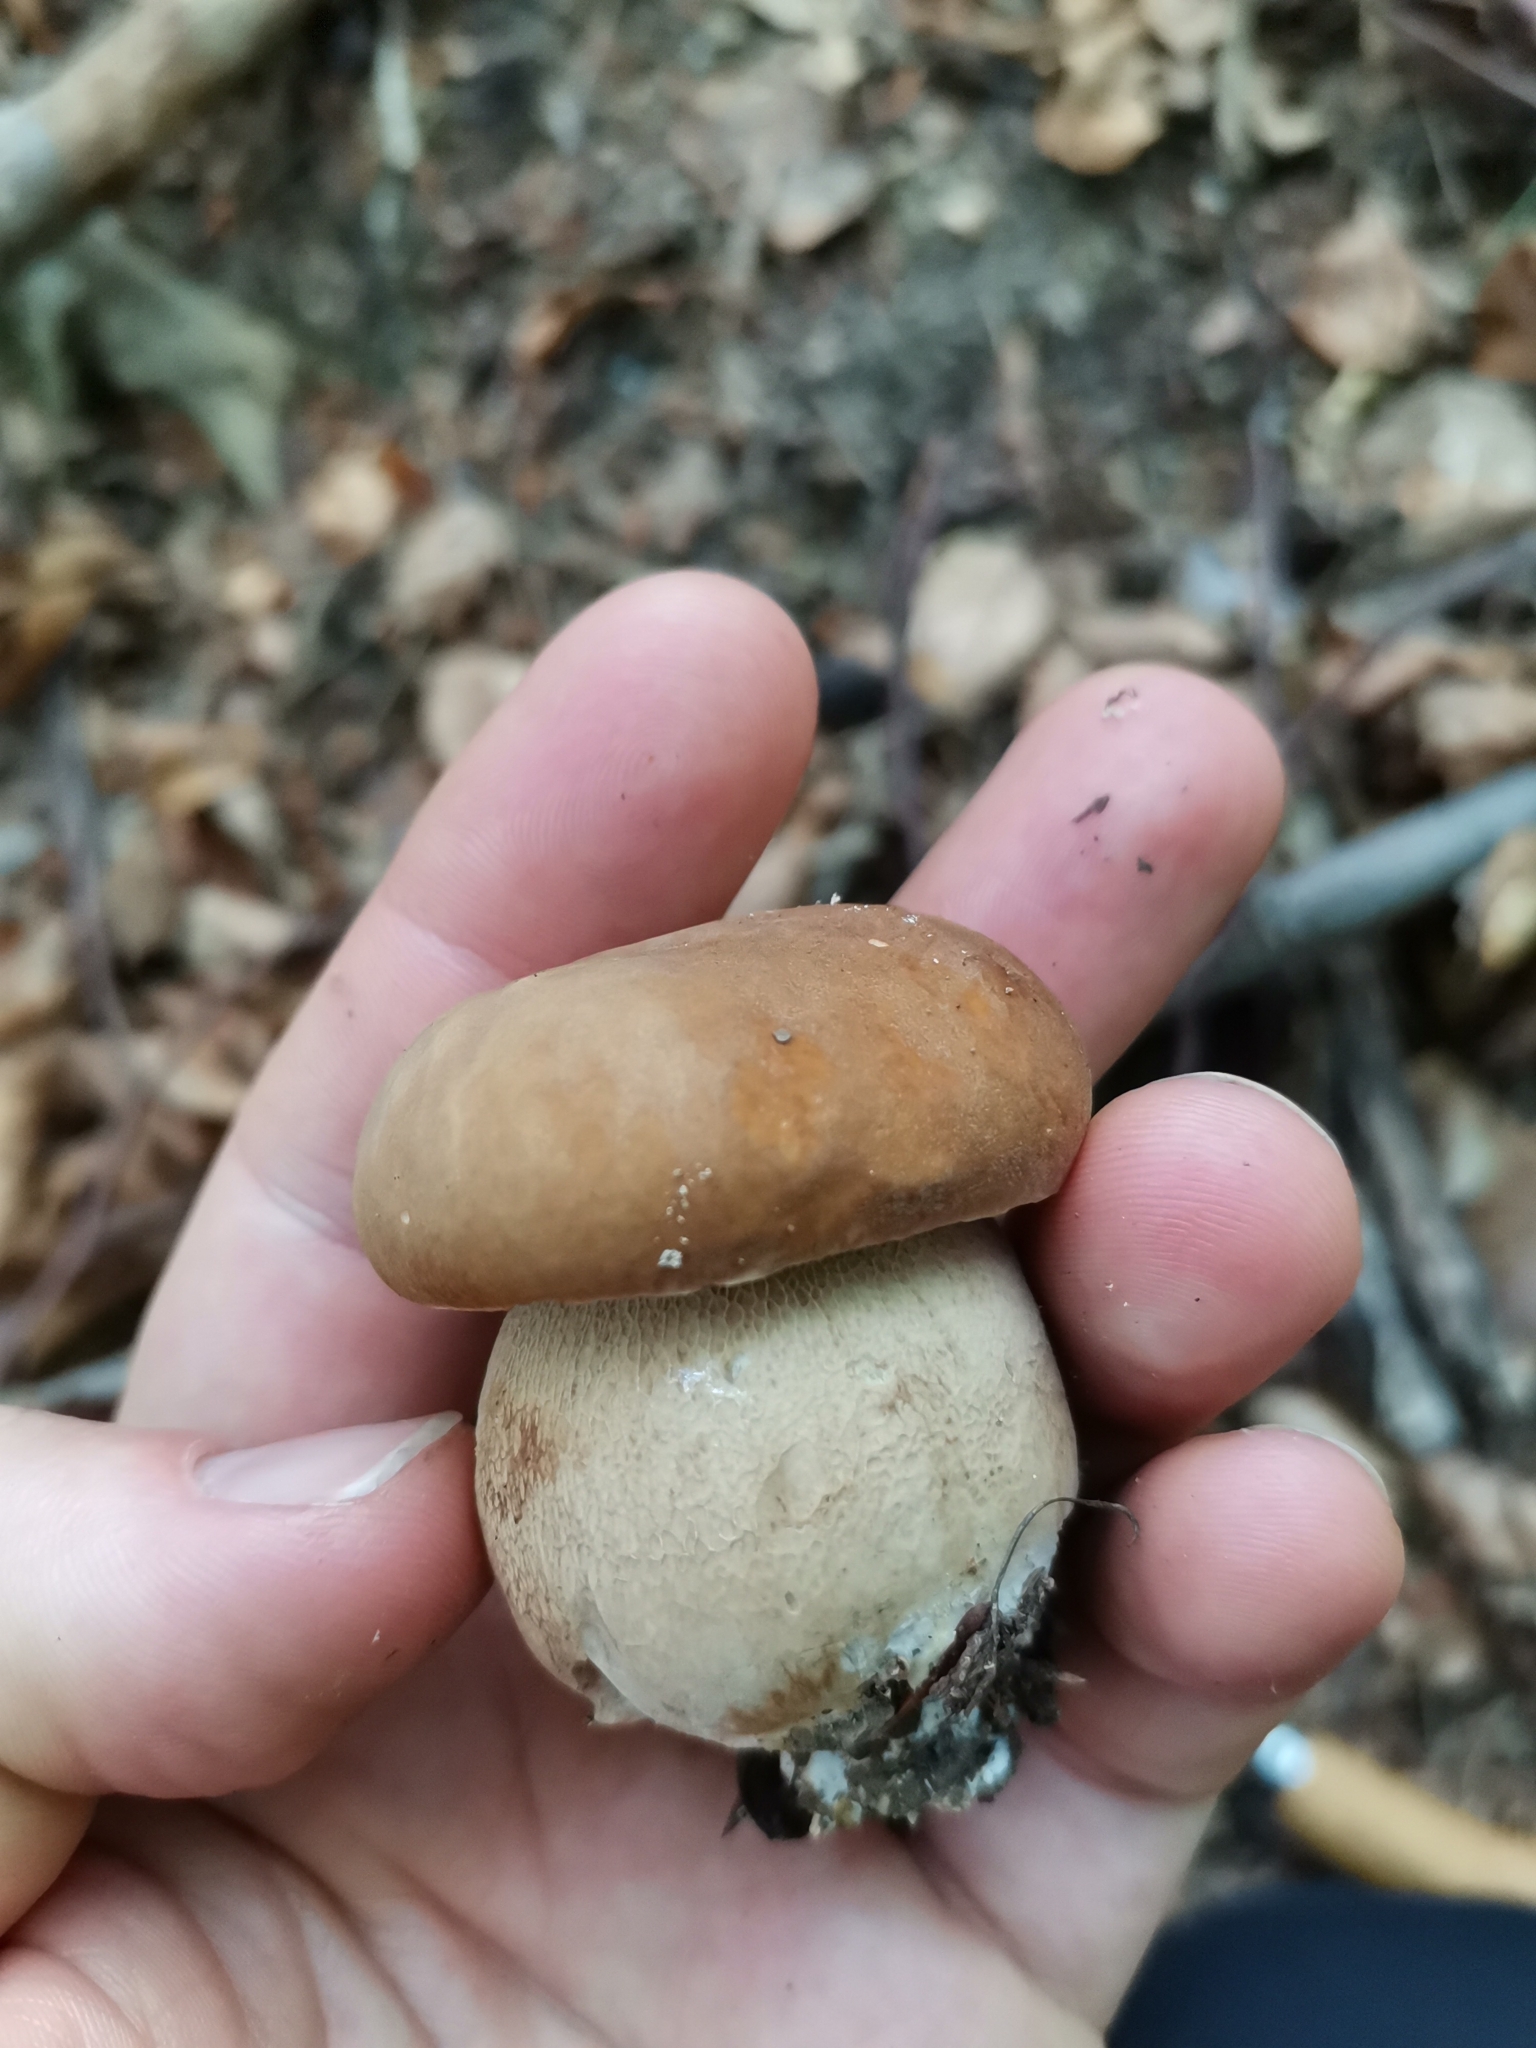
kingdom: Fungi
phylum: Basidiomycota
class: Agaricomycetes
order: Boletales
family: Boletaceae
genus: Boletus
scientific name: Boletus reticulatus
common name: Summer bolete
